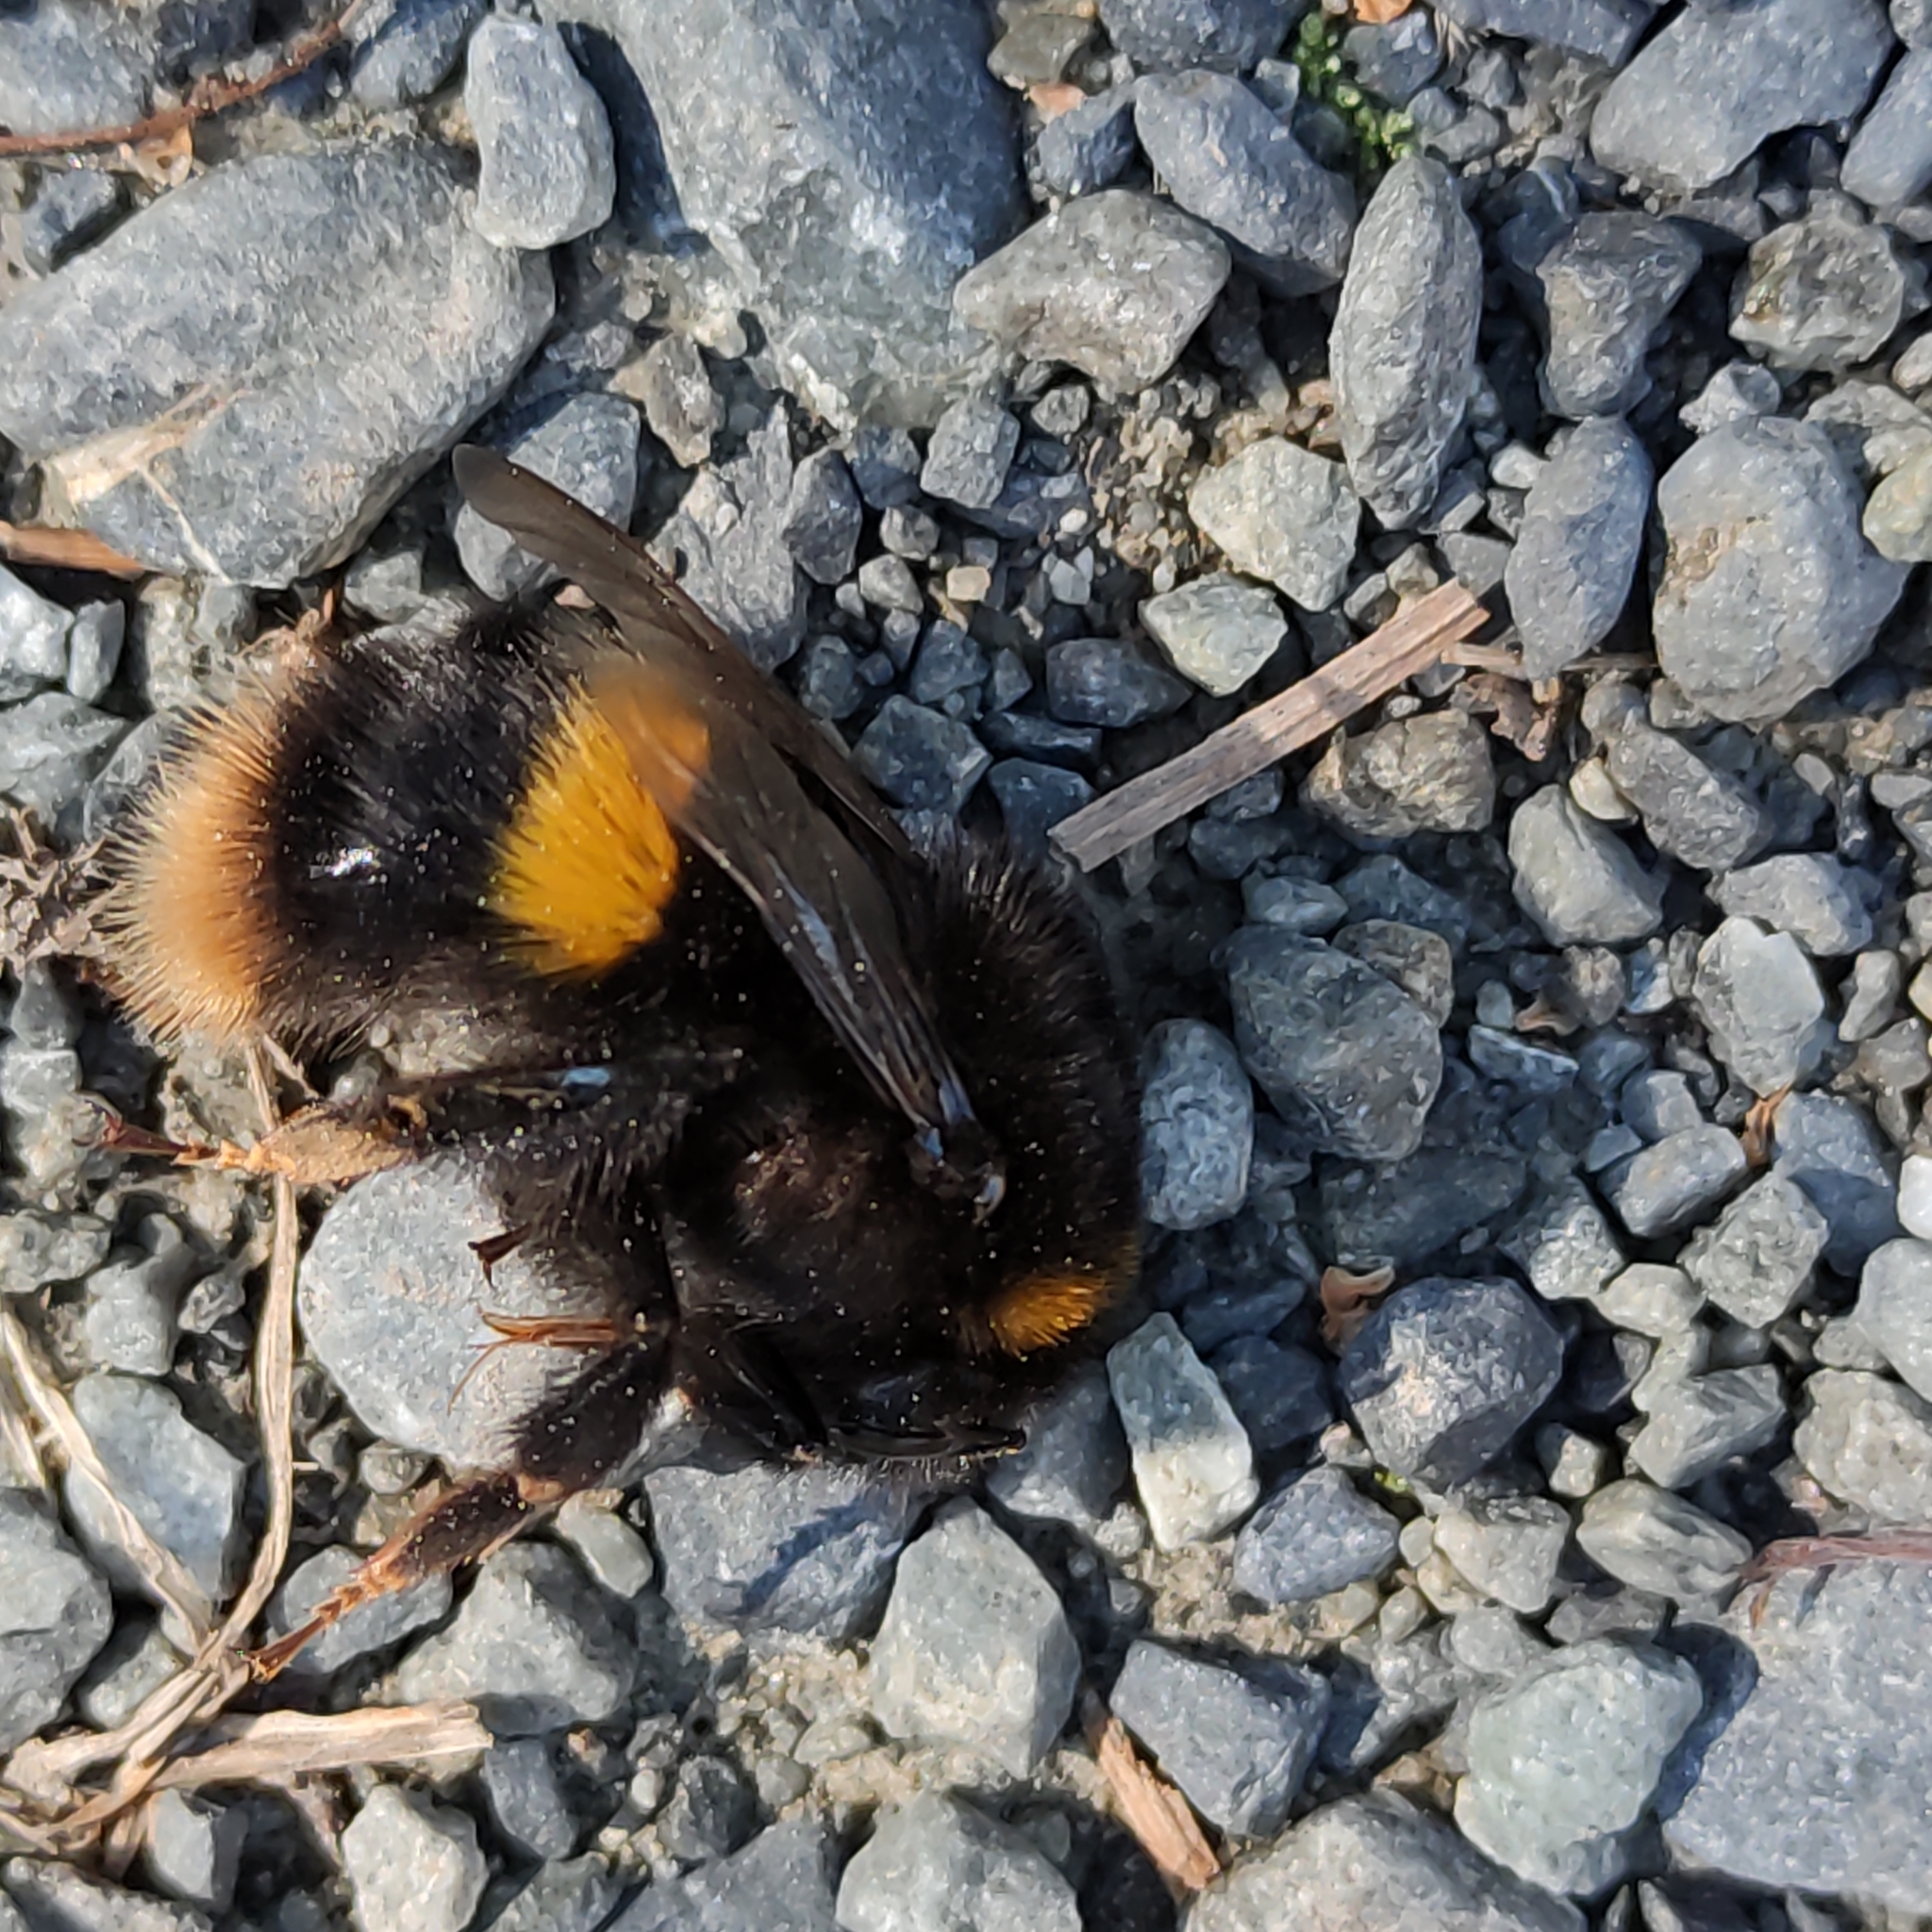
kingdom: Animalia
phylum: Arthropoda
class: Insecta
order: Hymenoptera
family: Apidae
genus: Bombus
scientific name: Bombus terrestris
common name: Buff-tailed bumblebee
